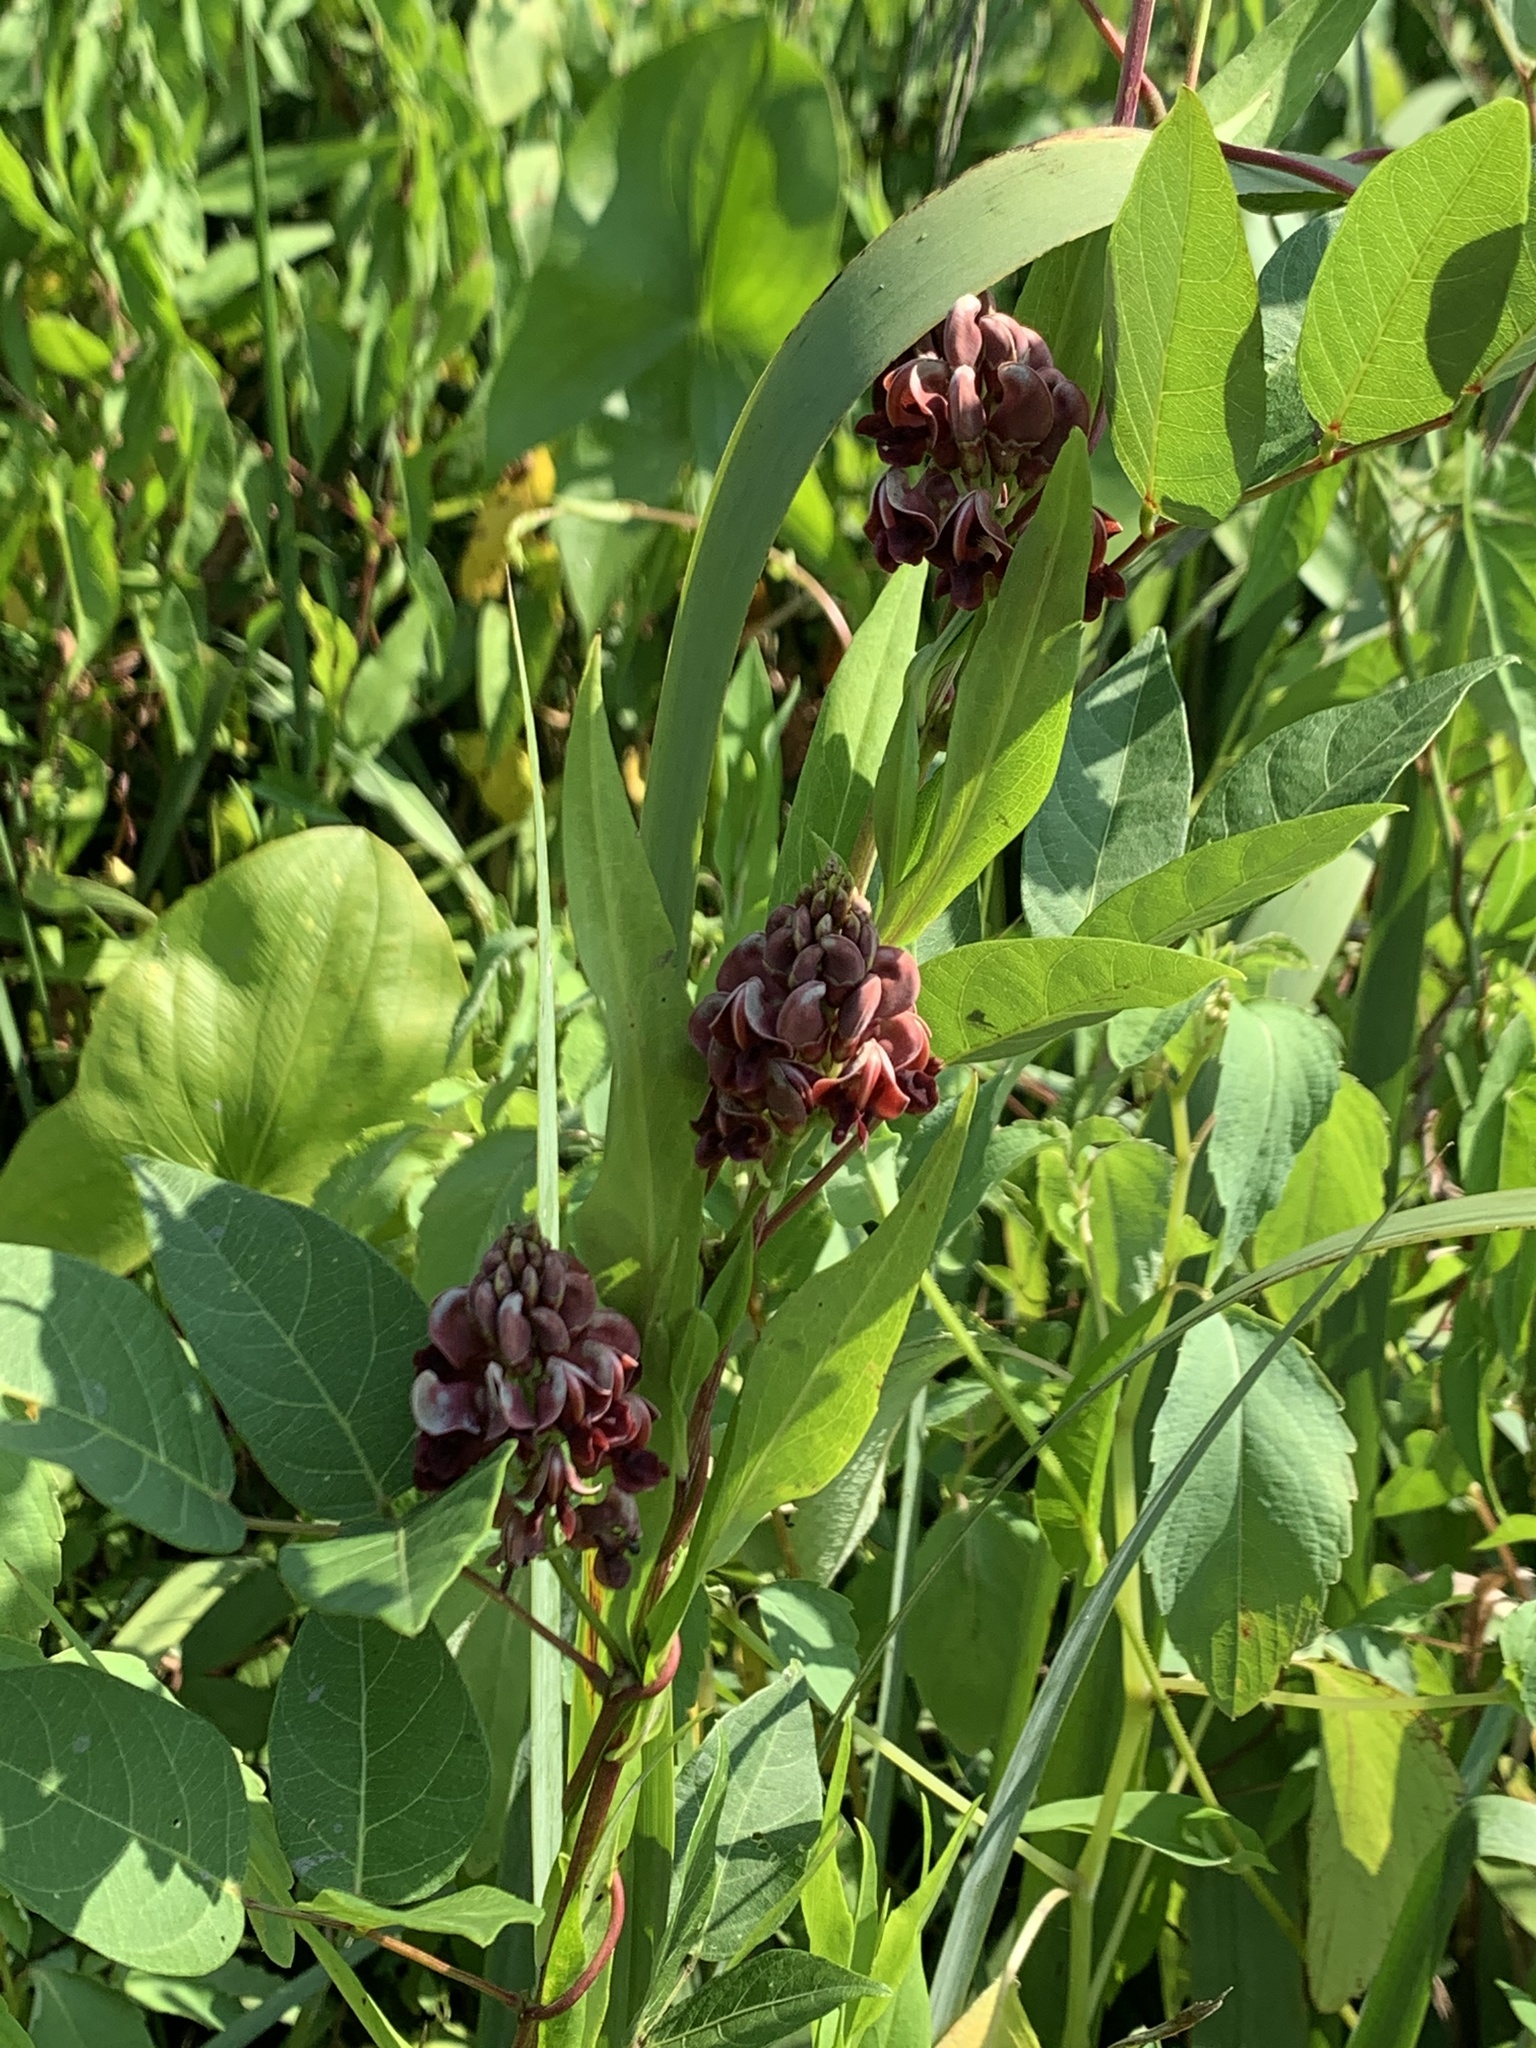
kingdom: Plantae
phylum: Tracheophyta
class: Magnoliopsida
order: Fabales
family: Fabaceae
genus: Apios
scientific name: Apios americana
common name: American potato-bean
